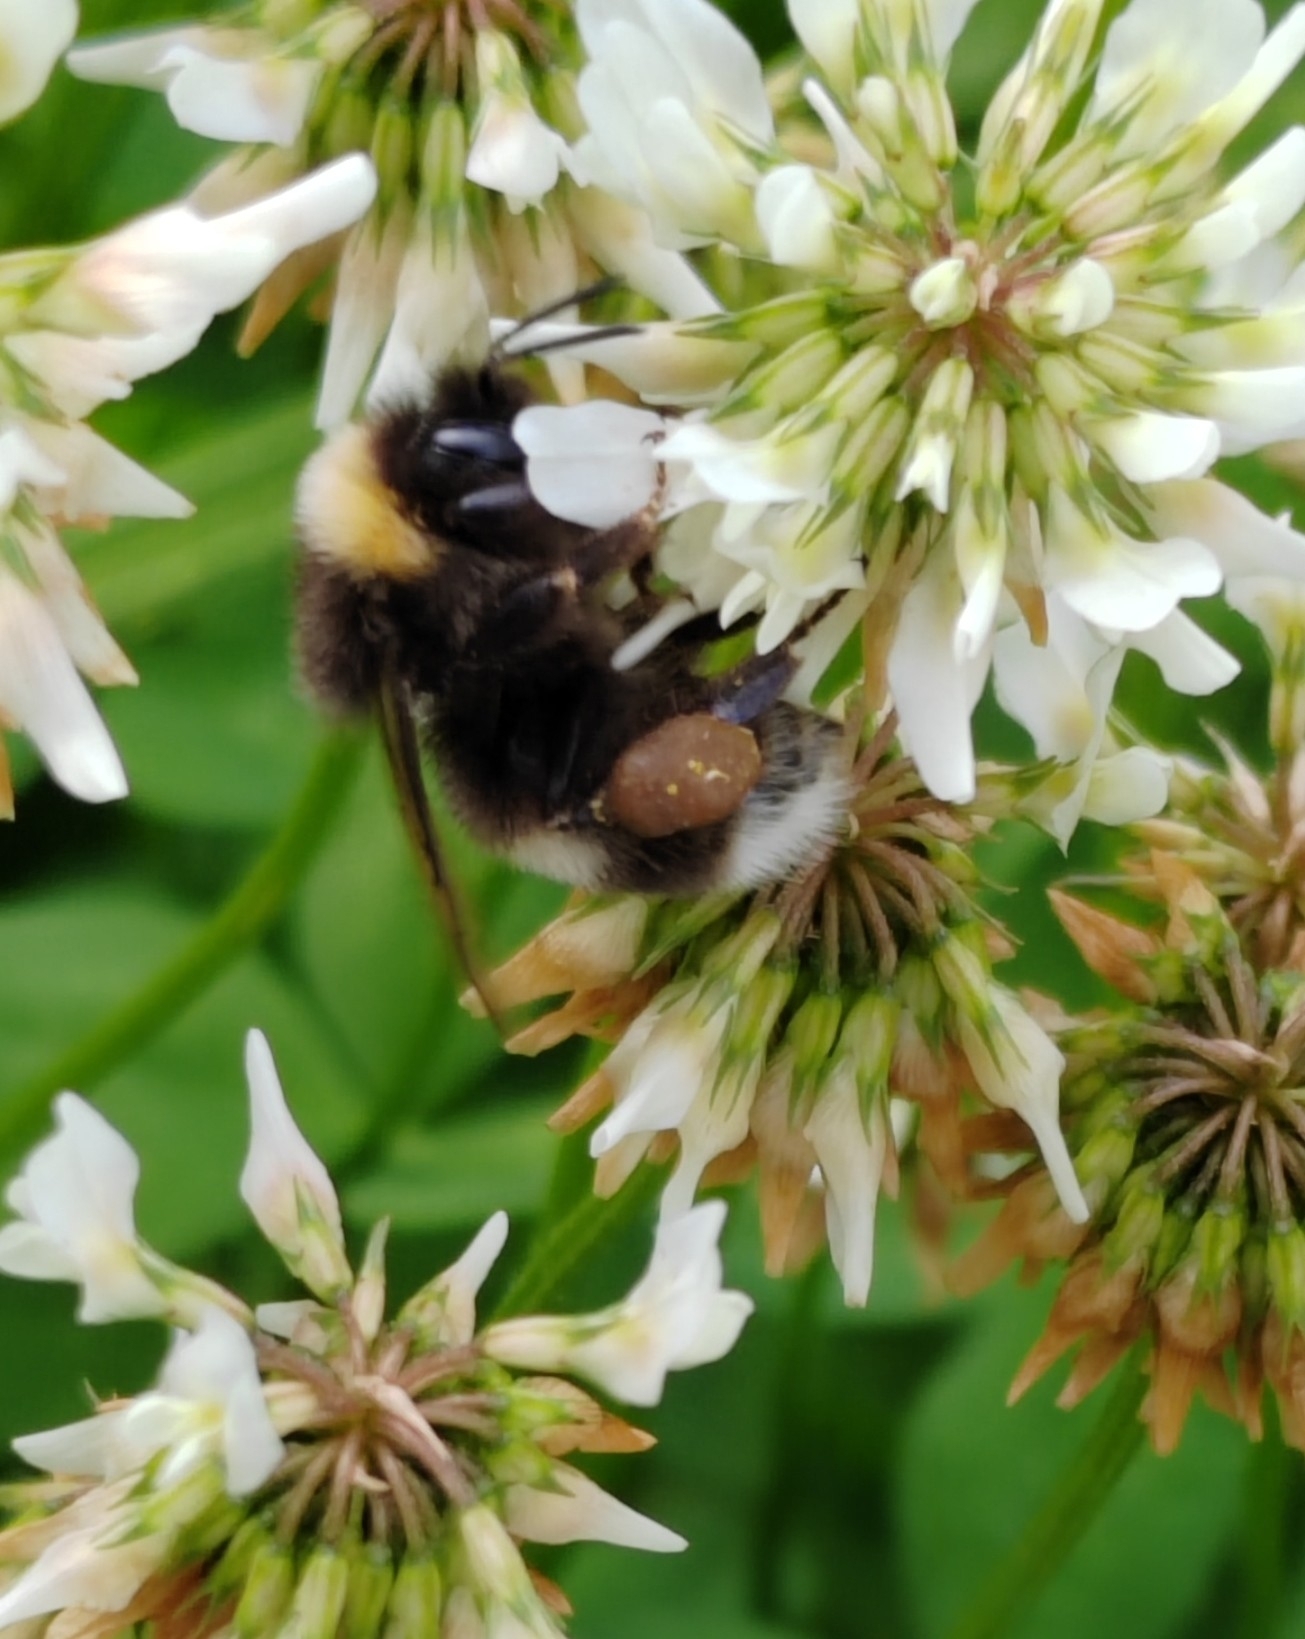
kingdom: Animalia
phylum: Arthropoda
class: Insecta
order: Hymenoptera
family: Apidae
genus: Bombus
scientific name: Bombus
